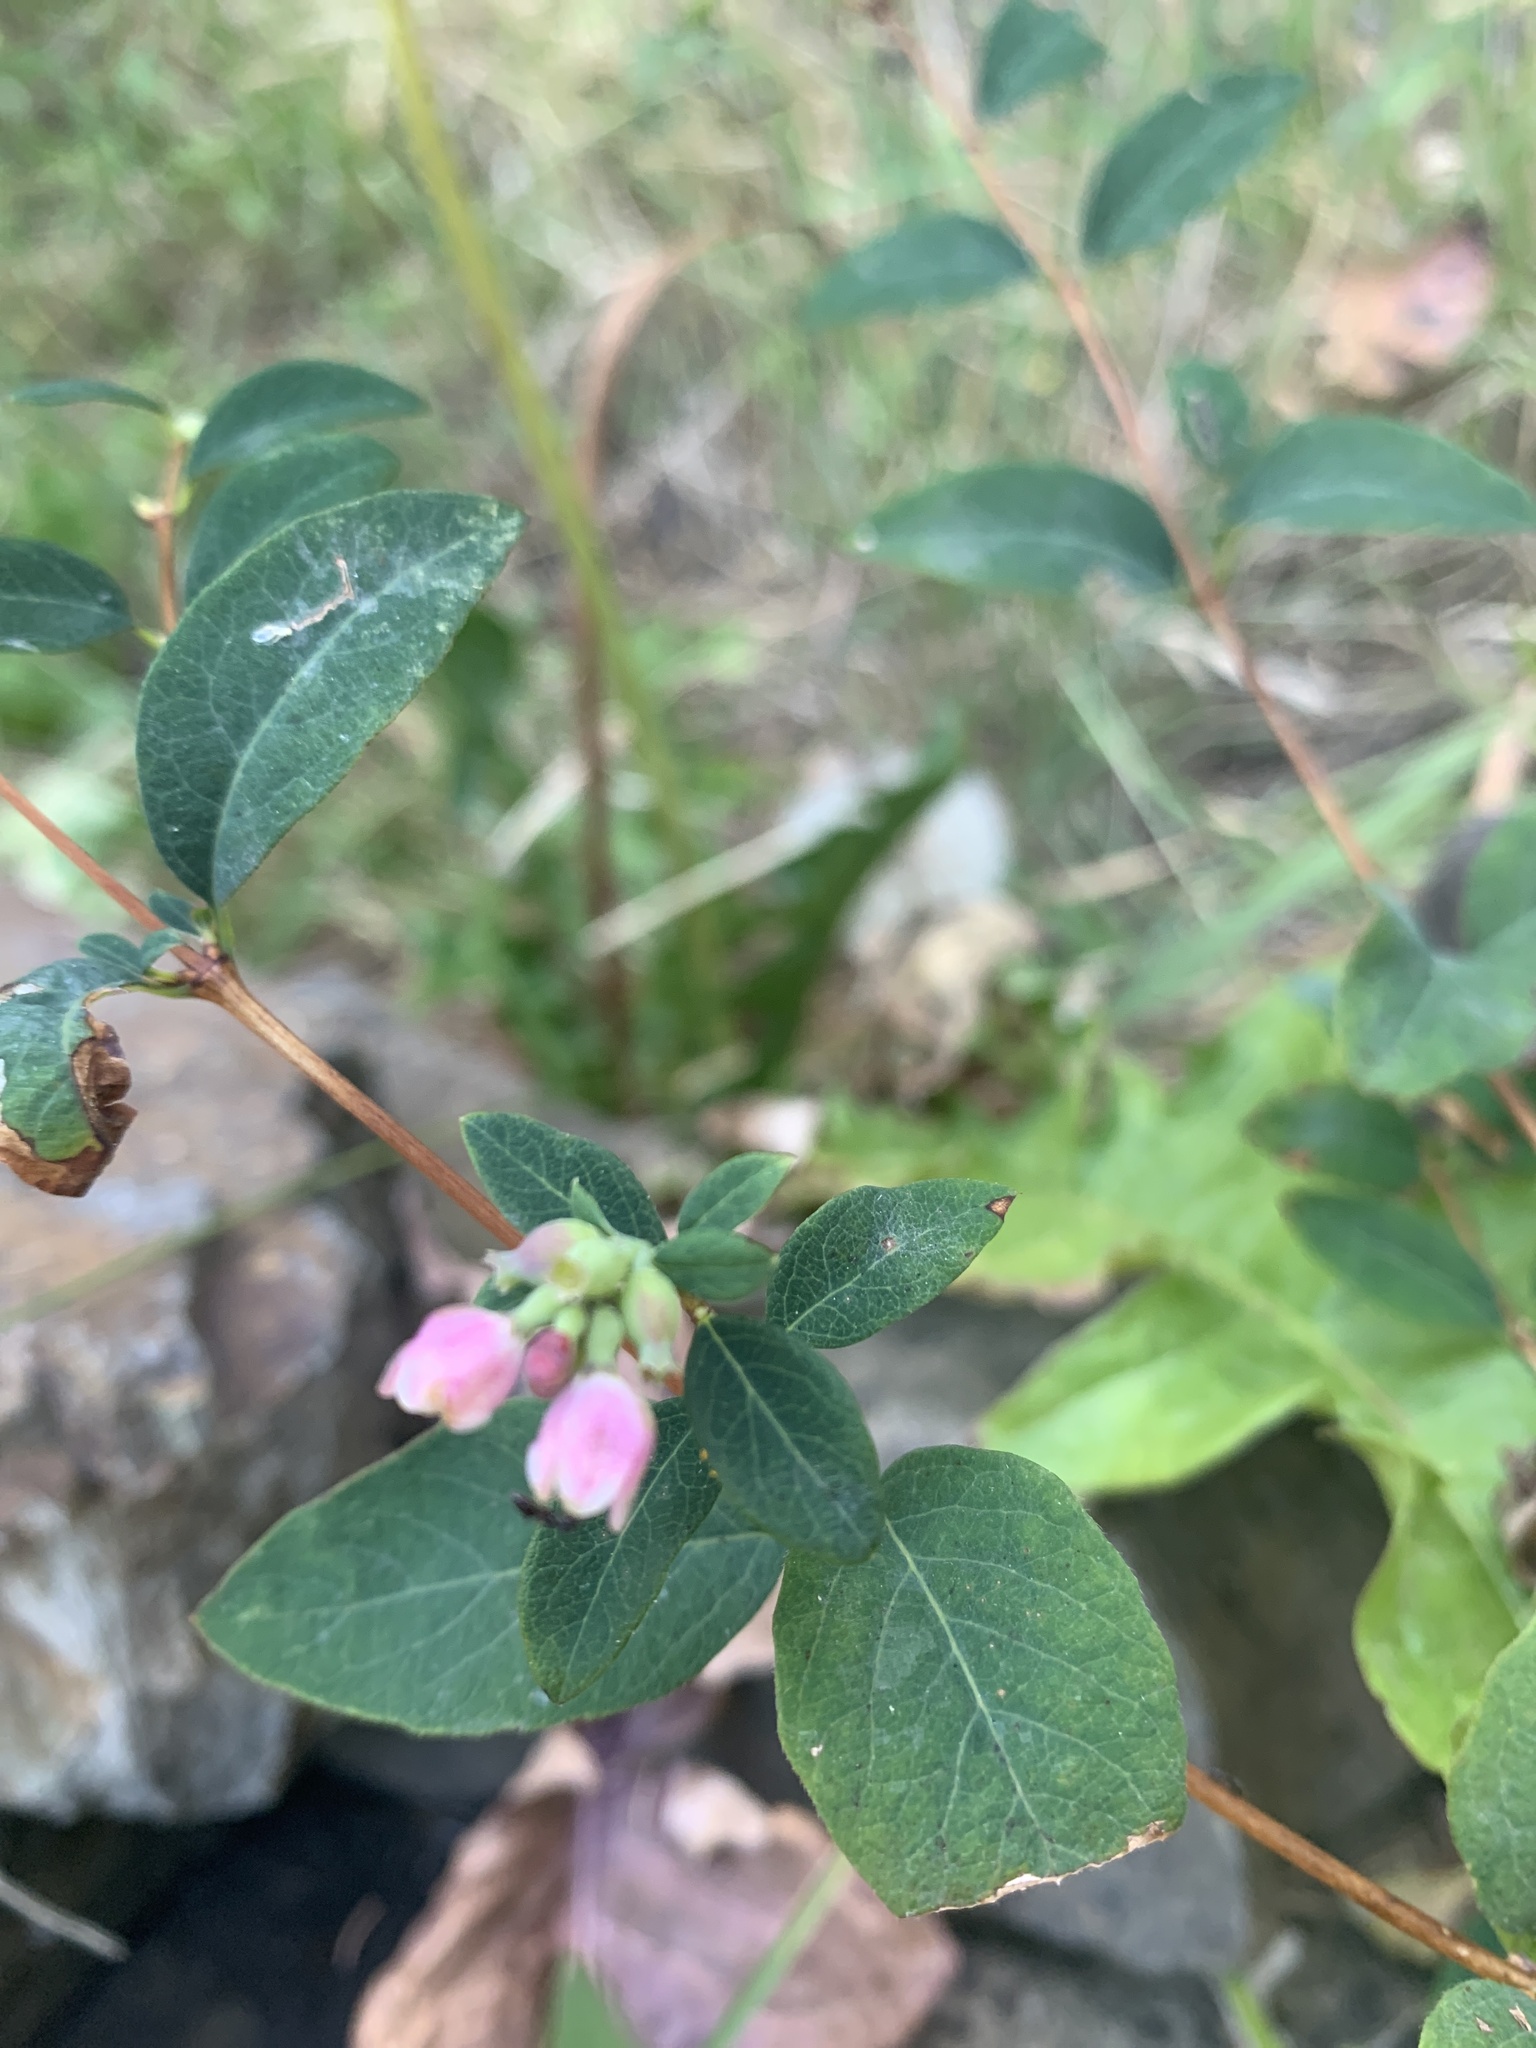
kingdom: Plantae
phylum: Tracheophyta
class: Magnoliopsida
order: Dipsacales
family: Caprifoliaceae
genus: Symphoricarpos
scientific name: Symphoricarpos albus
